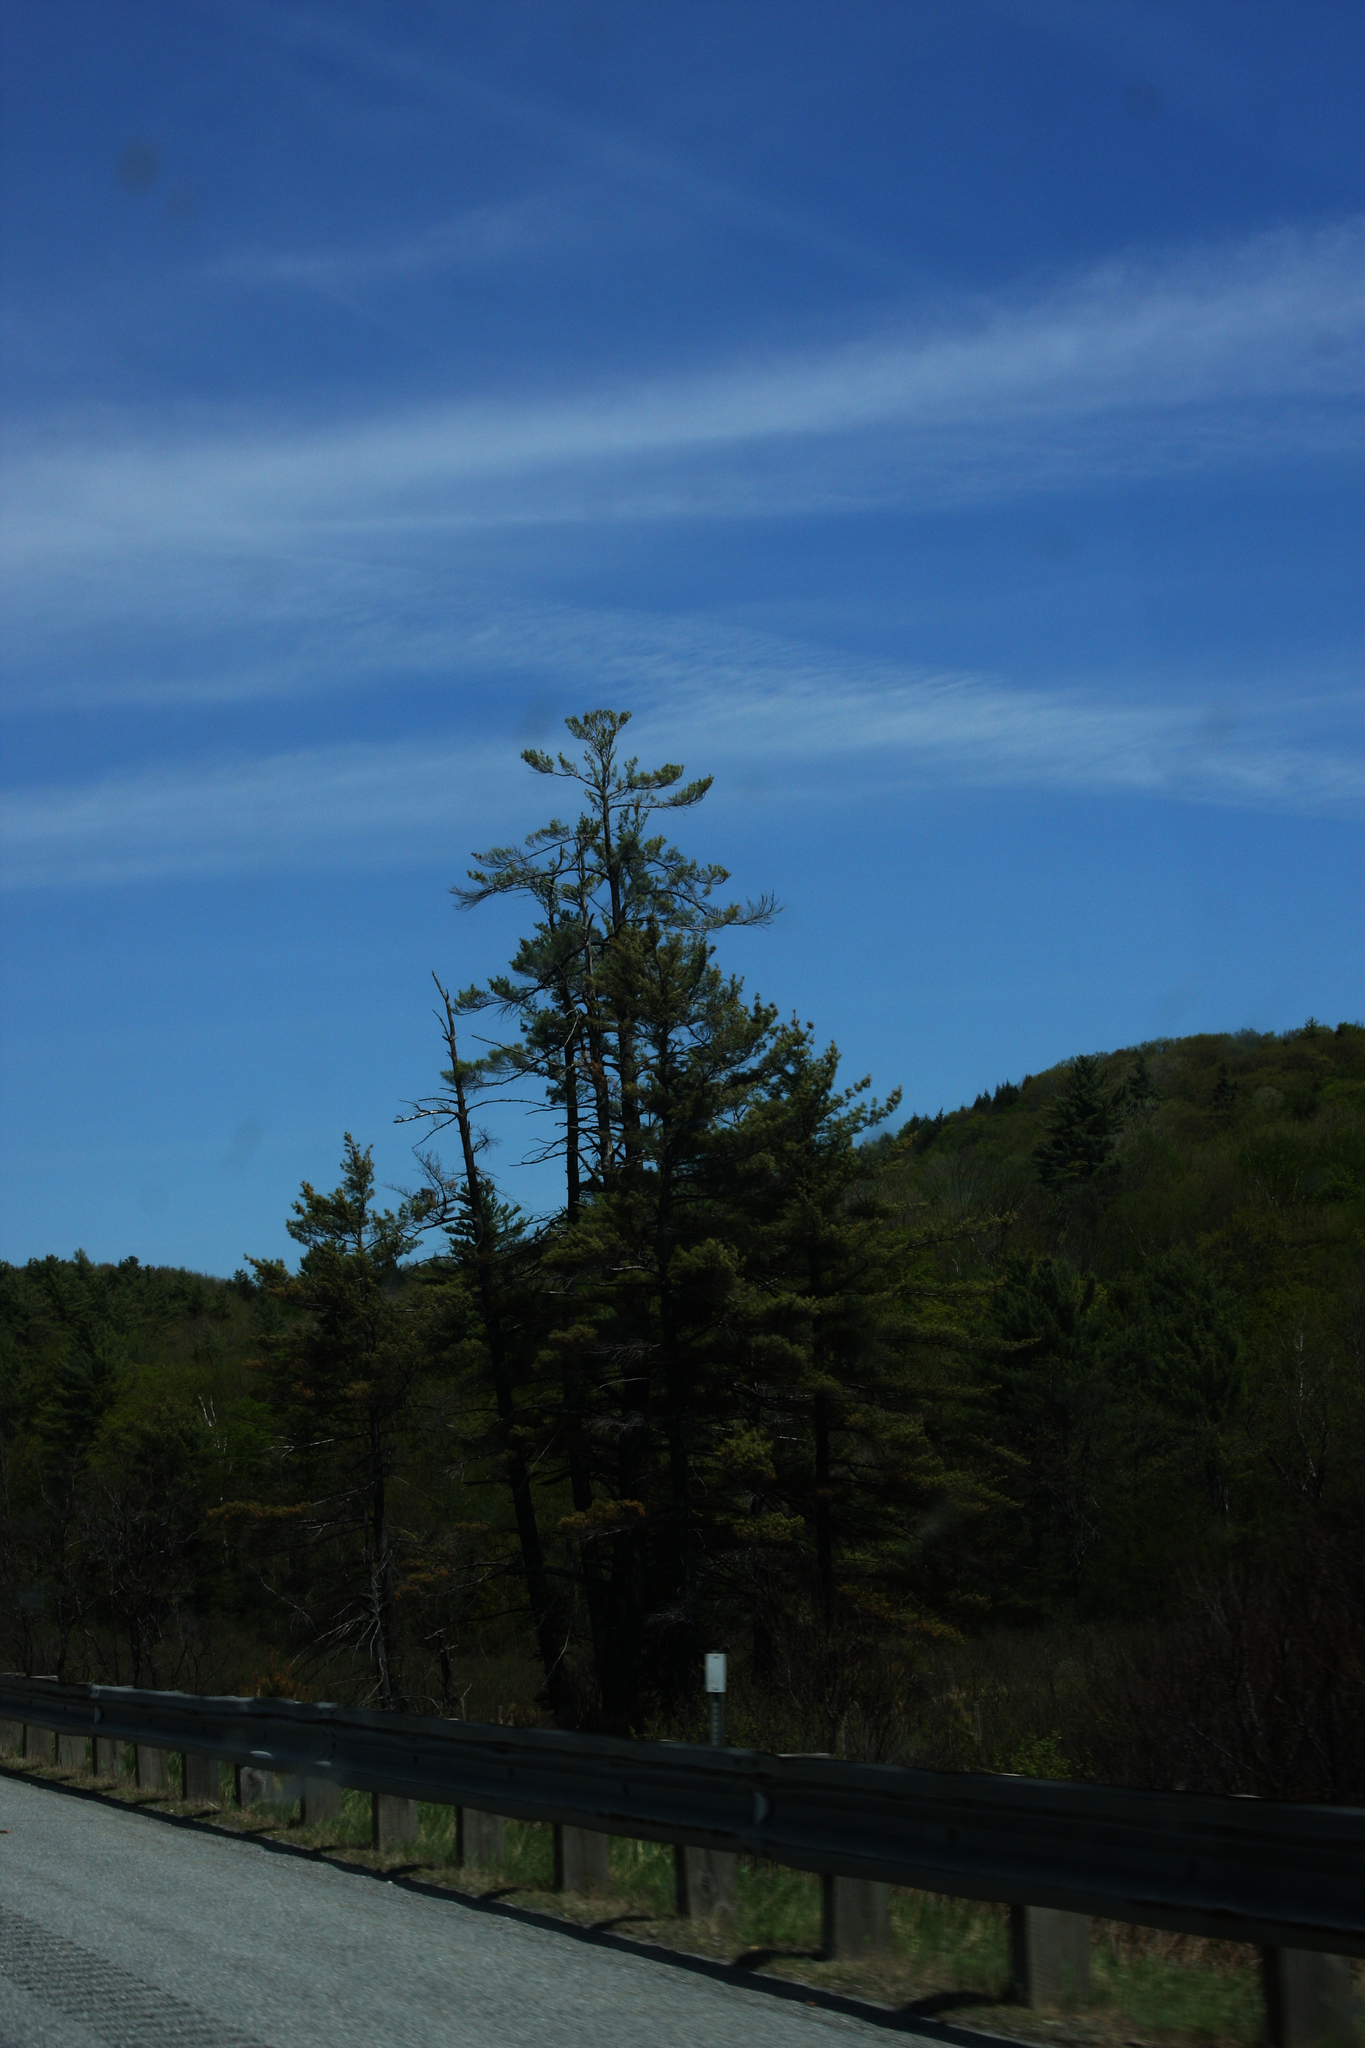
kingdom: Plantae
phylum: Tracheophyta
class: Pinopsida
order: Pinales
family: Pinaceae
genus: Pinus
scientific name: Pinus strobus
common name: Weymouth pine
